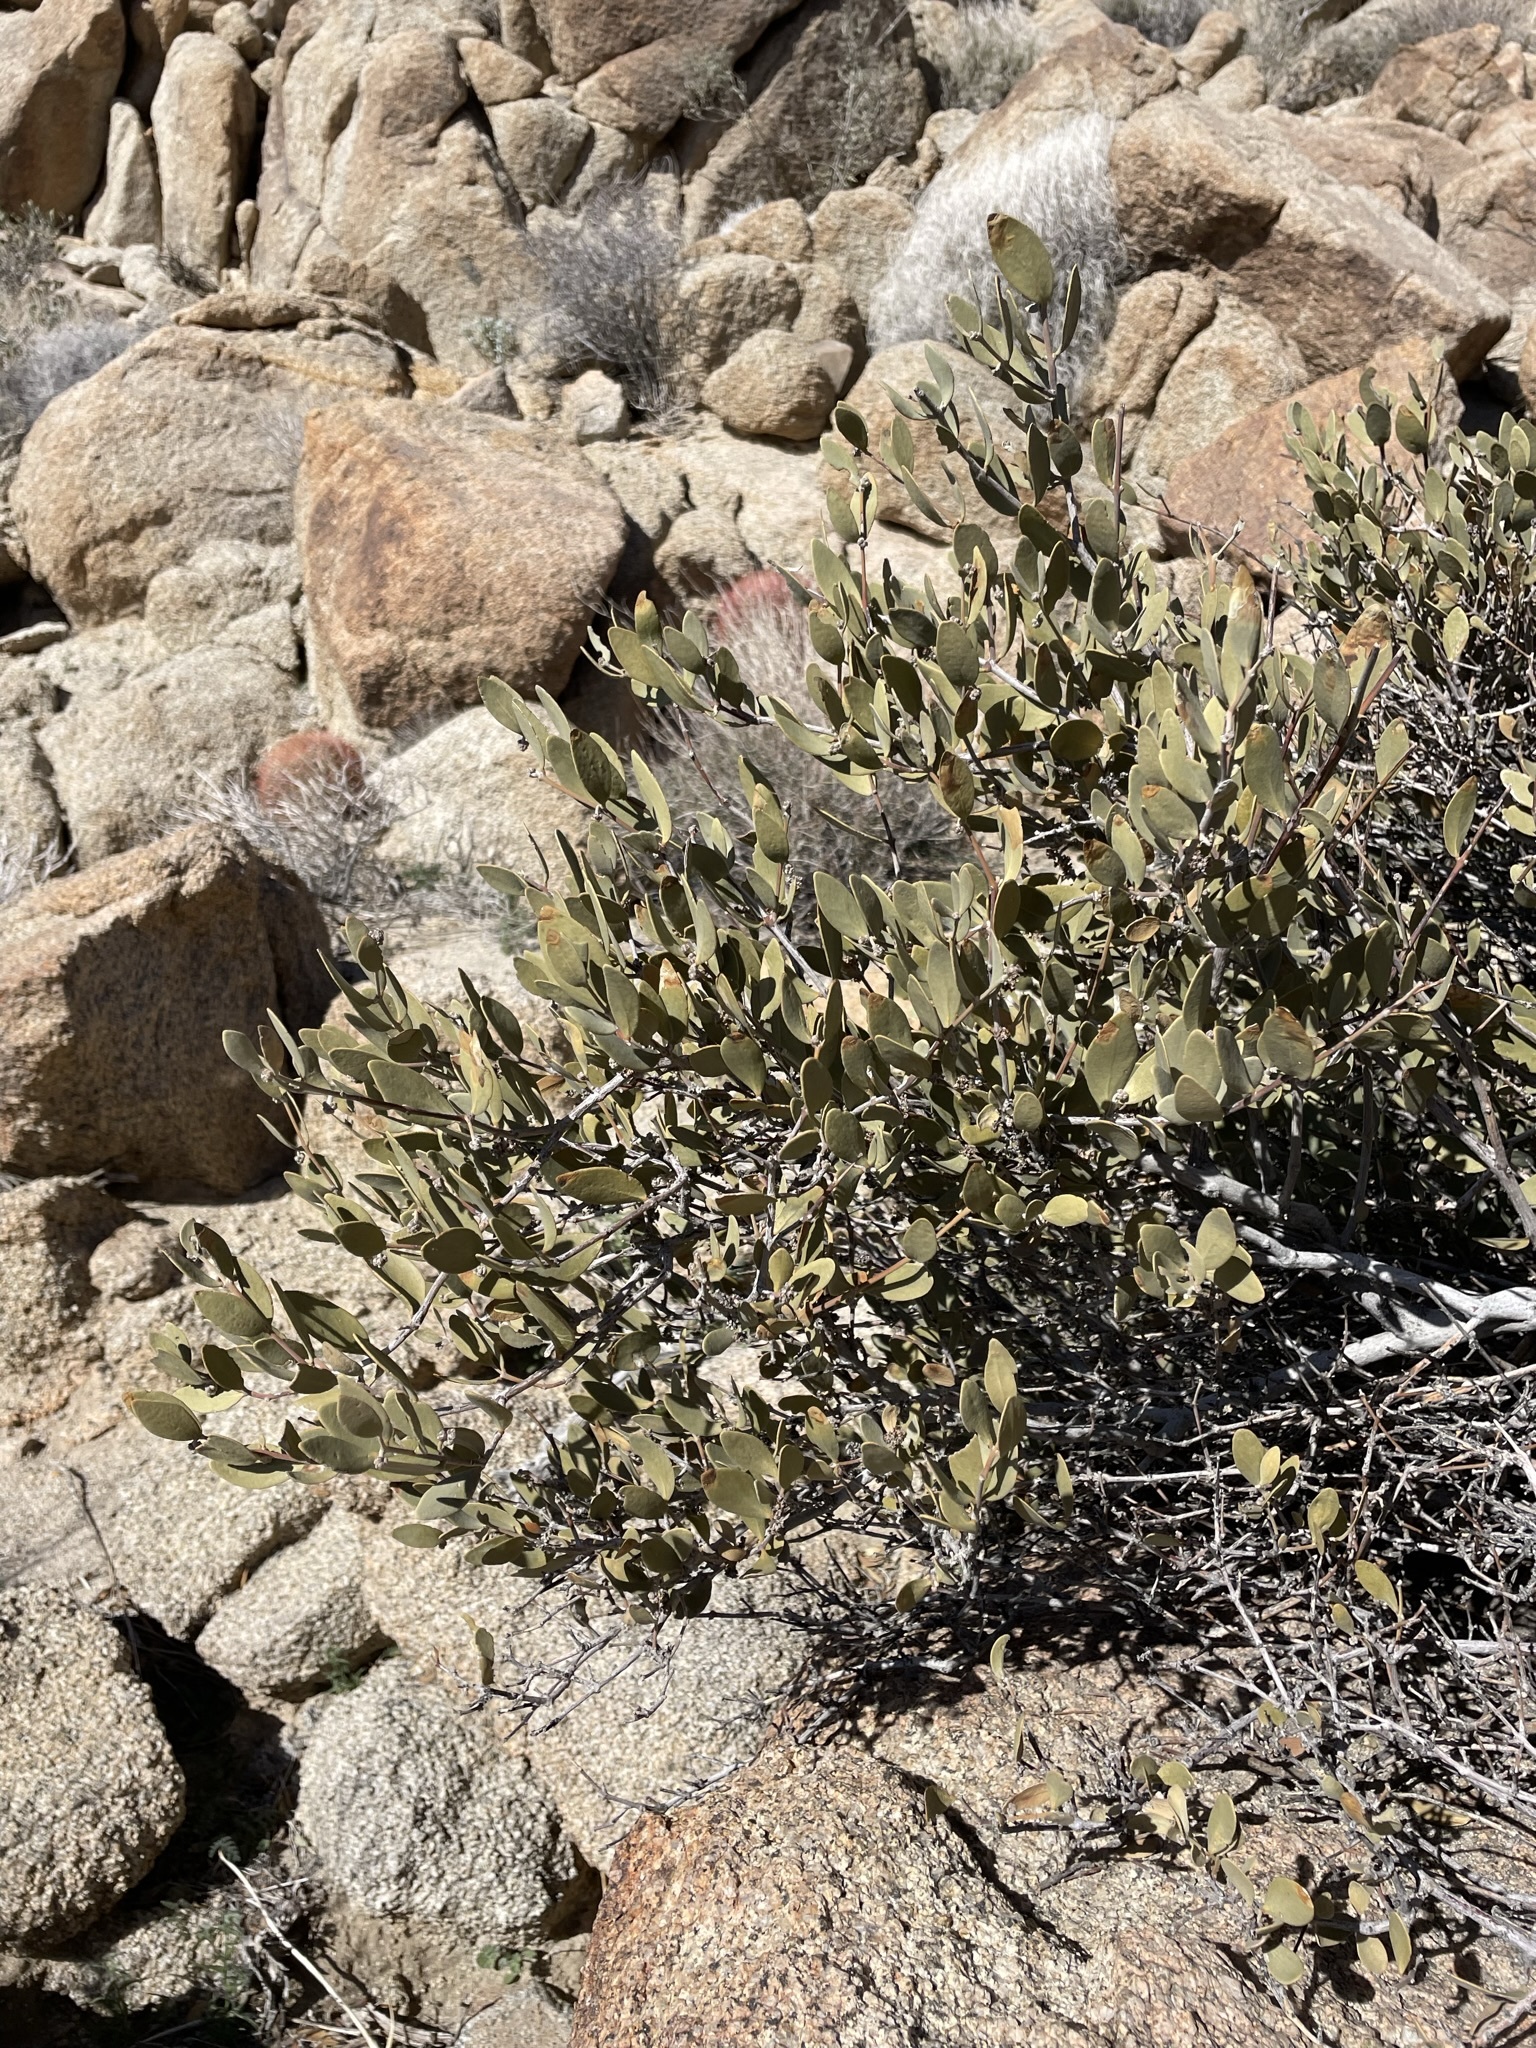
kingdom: Plantae
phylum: Tracheophyta
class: Magnoliopsida
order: Caryophyllales
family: Simmondsiaceae
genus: Simmondsia
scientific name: Simmondsia chinensis
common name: Jojoba
